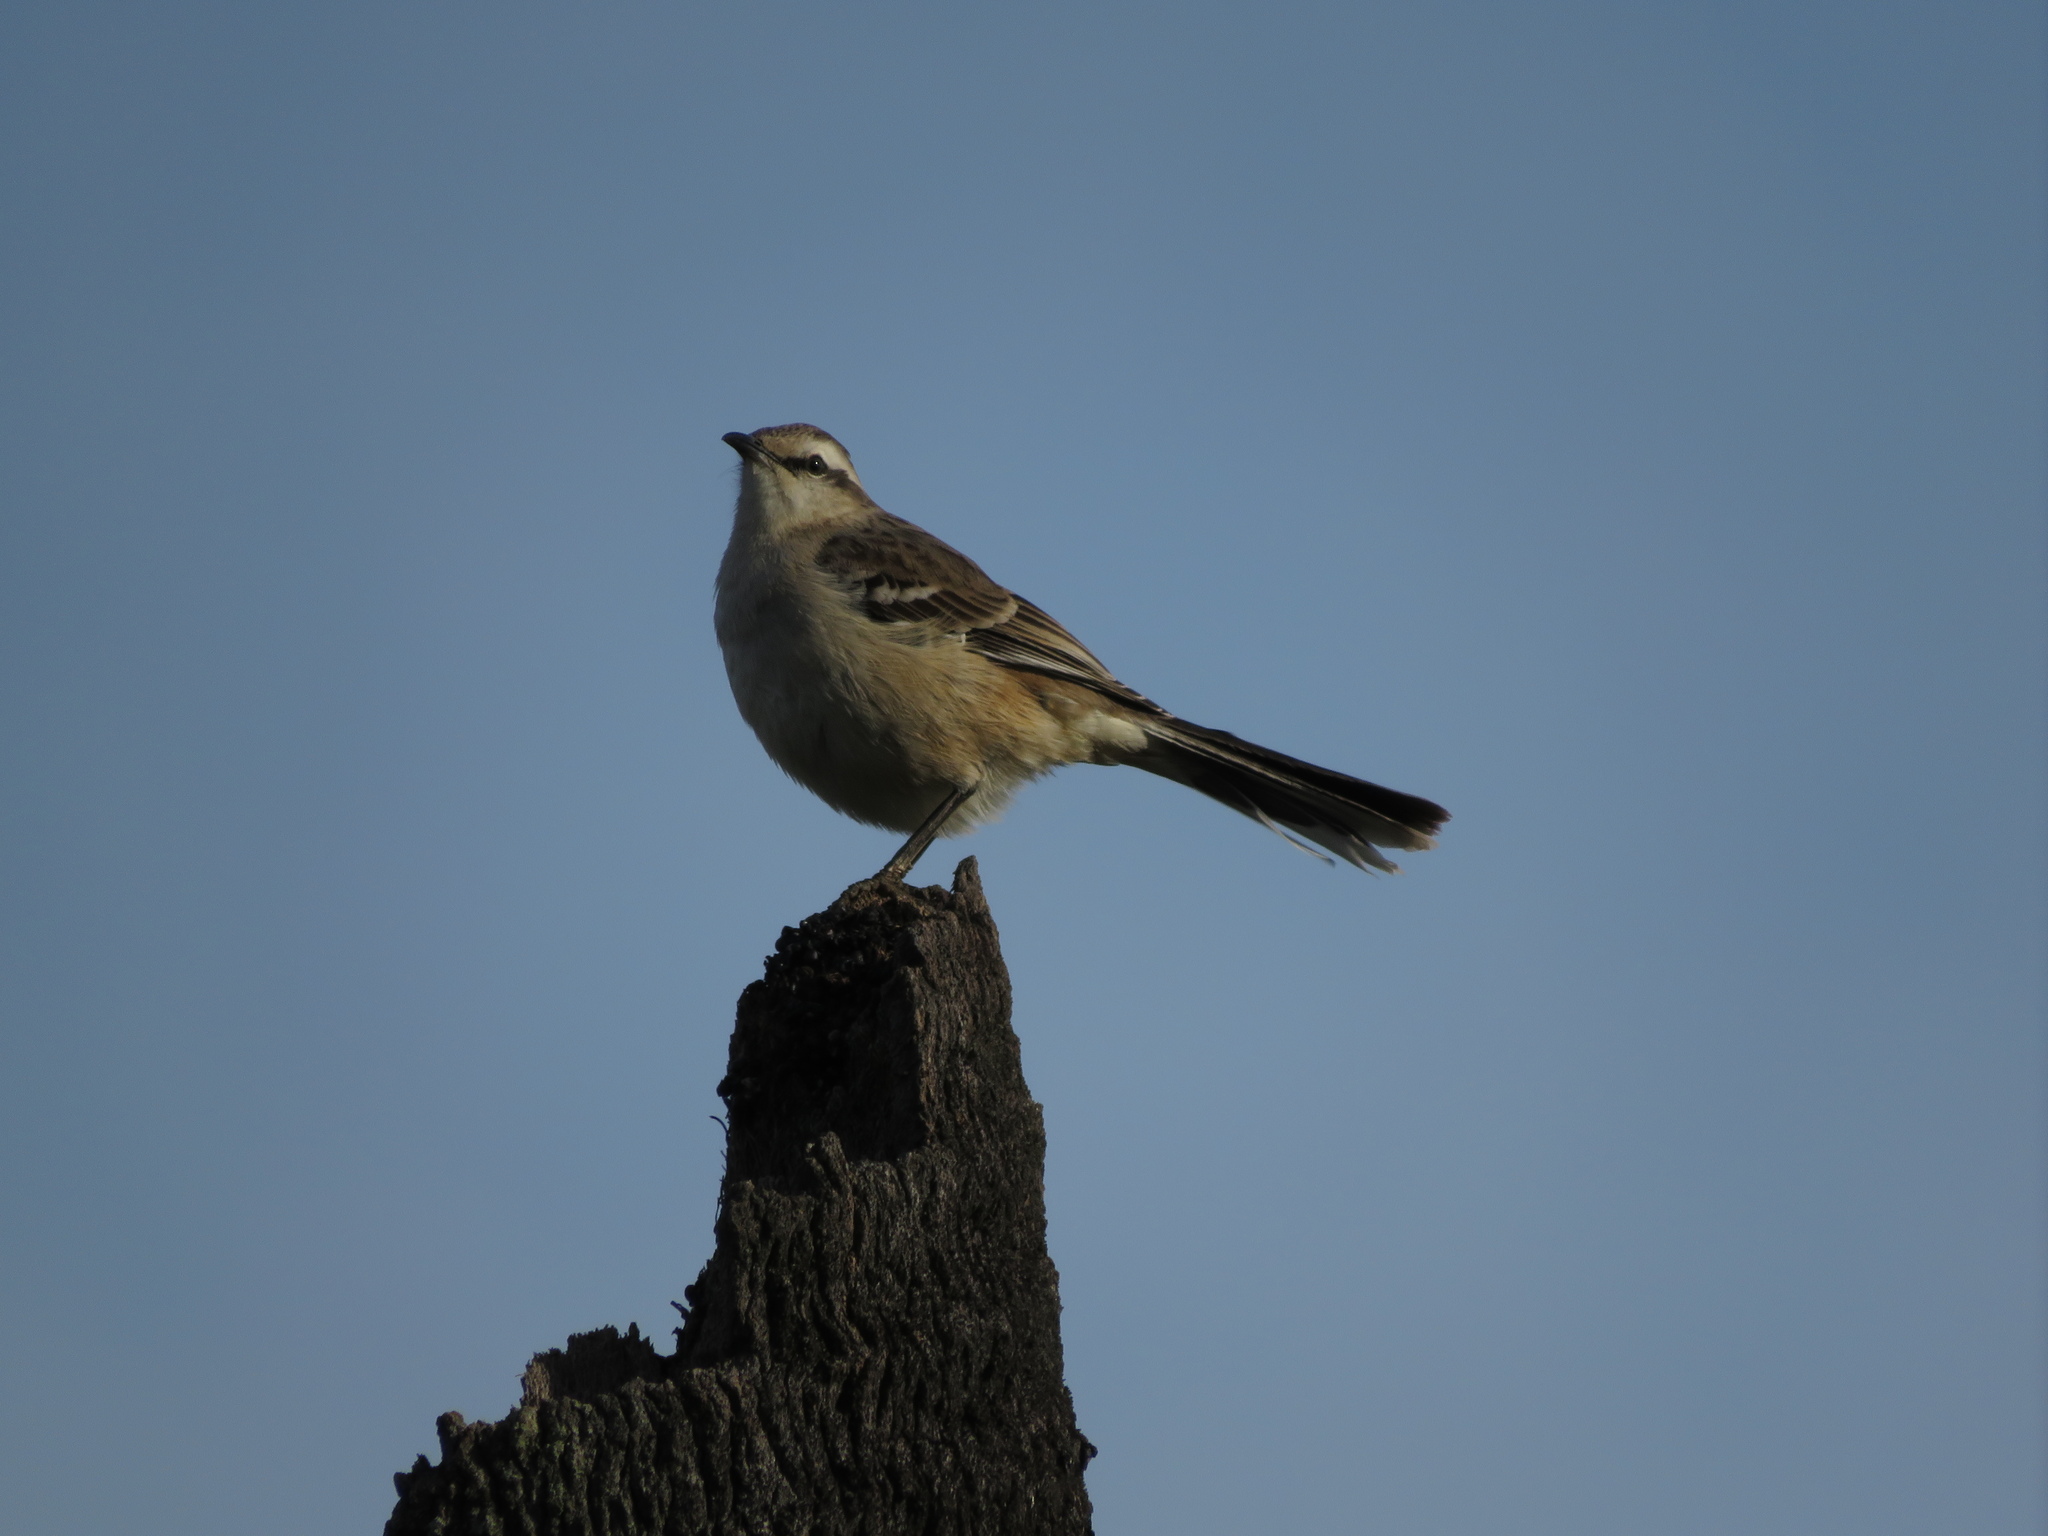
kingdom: Animalia
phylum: Chordata
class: Aves
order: Passeriformes
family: Mimidae
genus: Mimus
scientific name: Mimus saturninus
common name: Chalk-browed mockingbird
